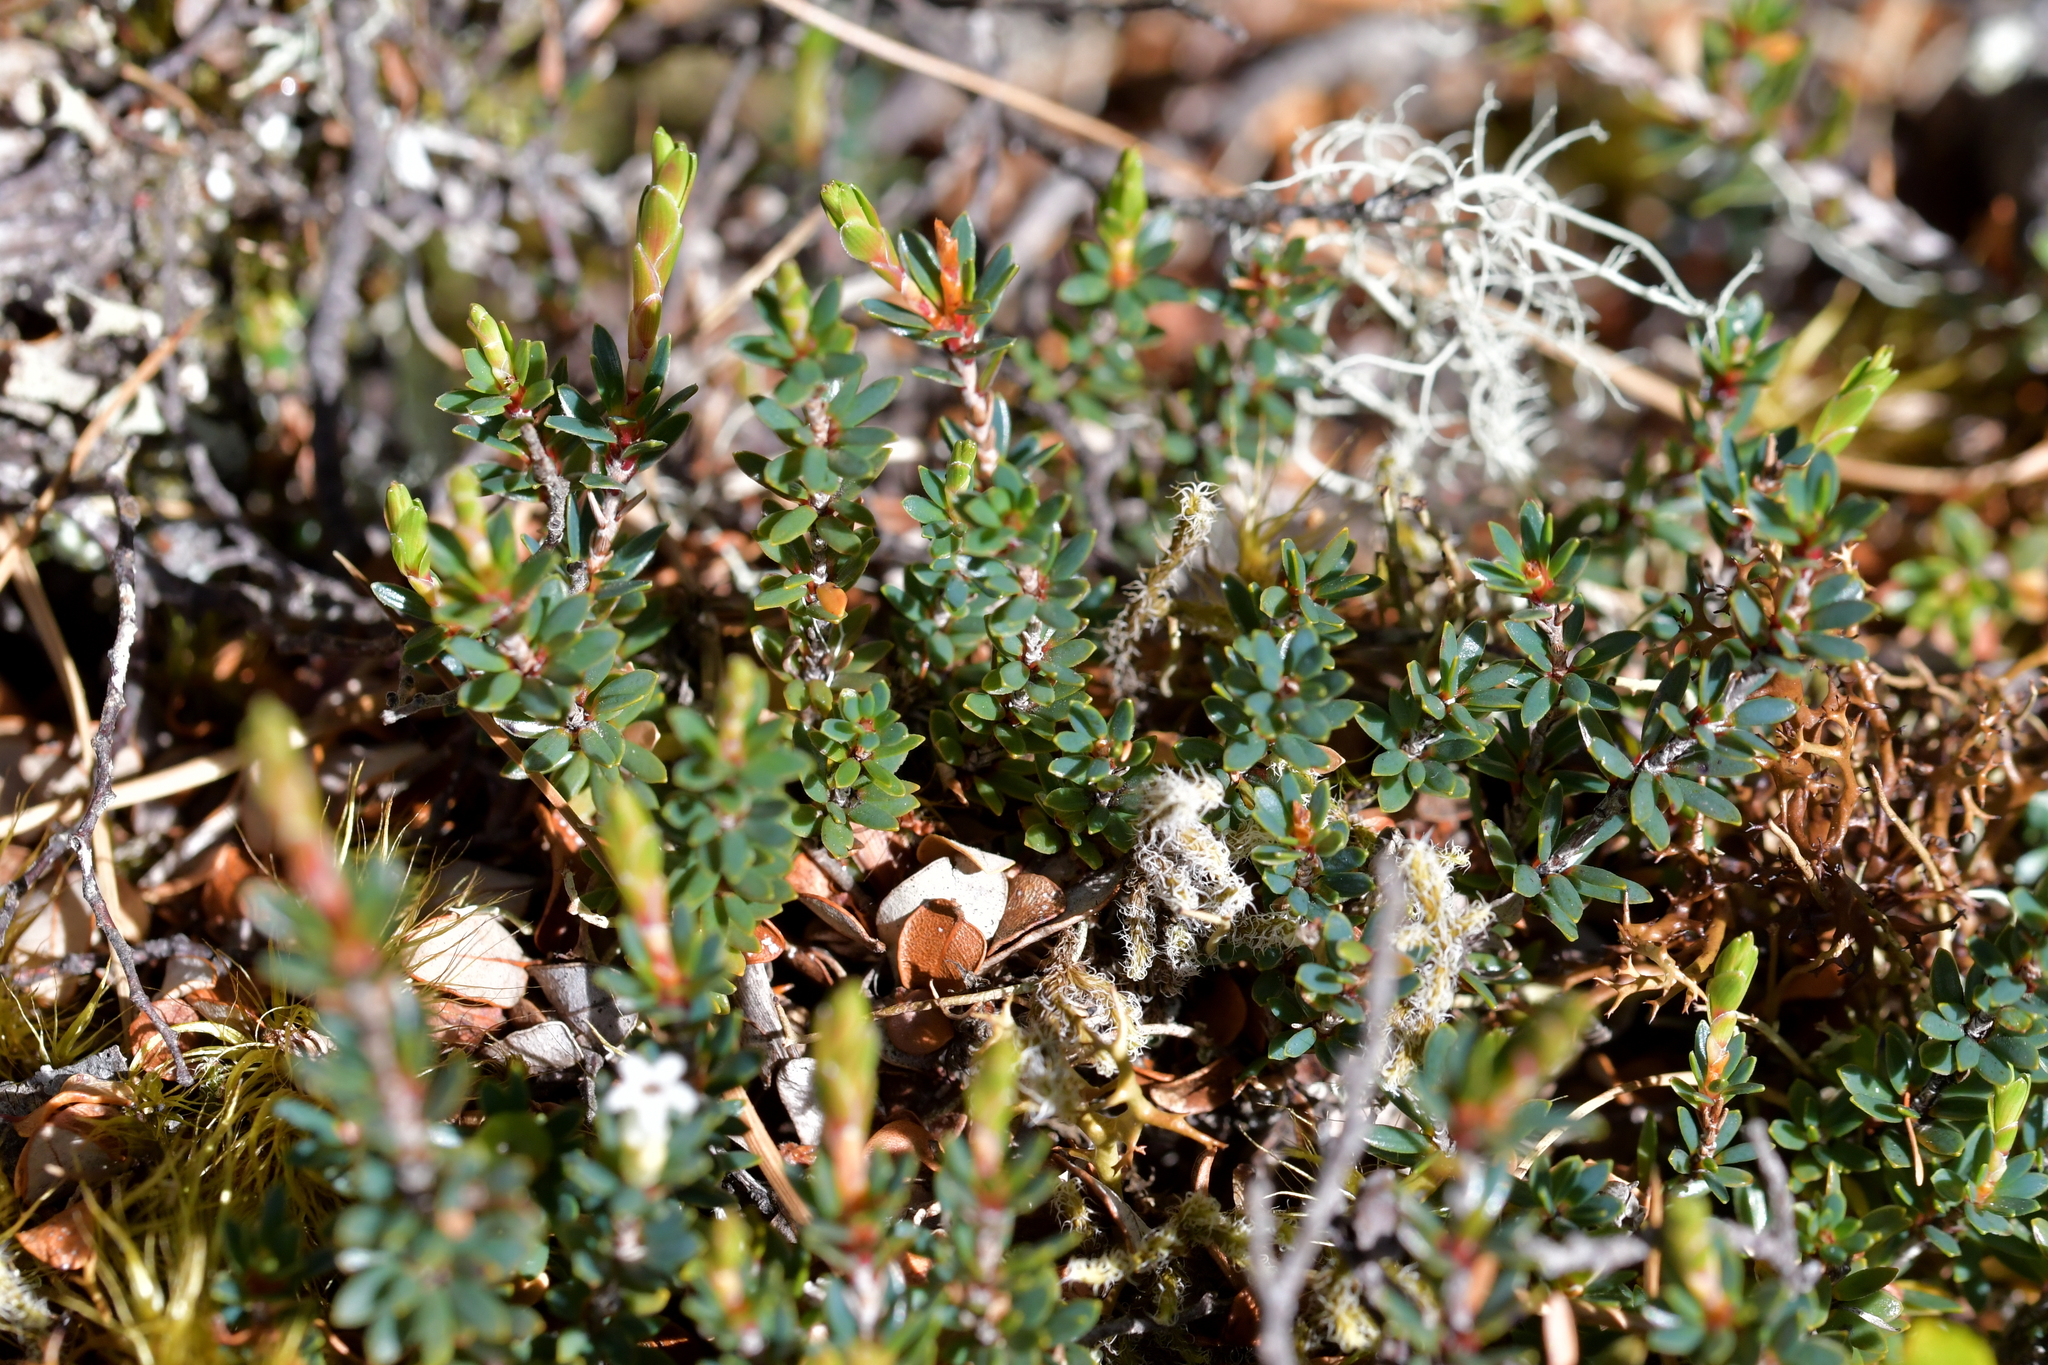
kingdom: Plantae
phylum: Tracheophyta
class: Magnoliopsida
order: Ericales
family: Ericaceae
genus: Pentachondra
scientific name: Pentachondra pumila
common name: Carpet-heath
